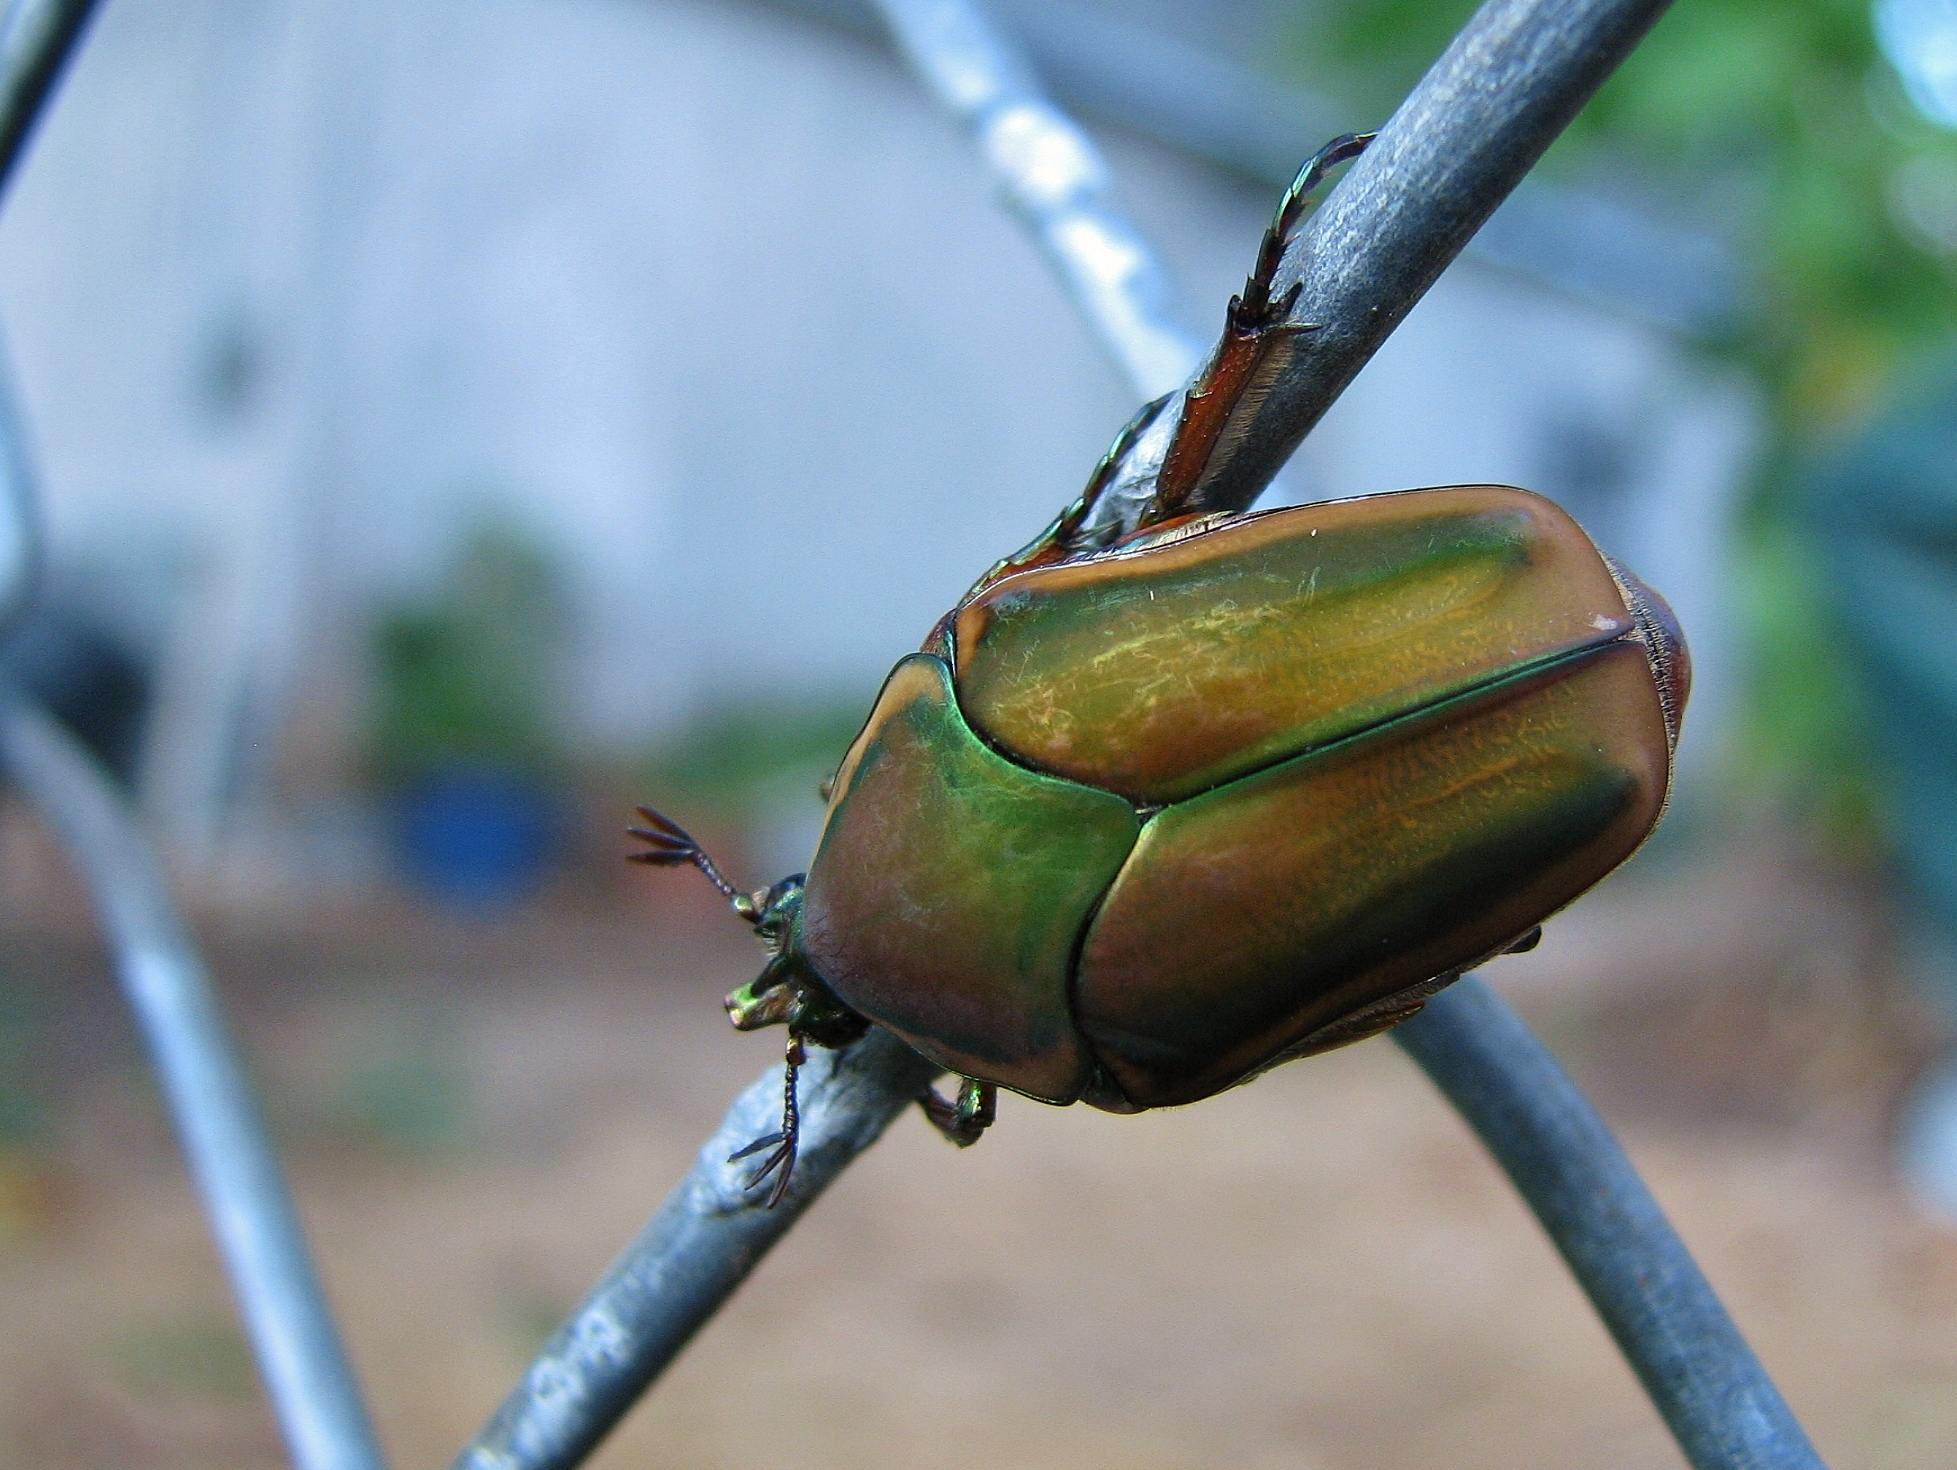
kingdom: Animalia
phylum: Arthropoda
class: Insecta
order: Coleoptera
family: Scarabaeidae
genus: Cotinis
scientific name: Cotinis nitida
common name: Common green june beetle
